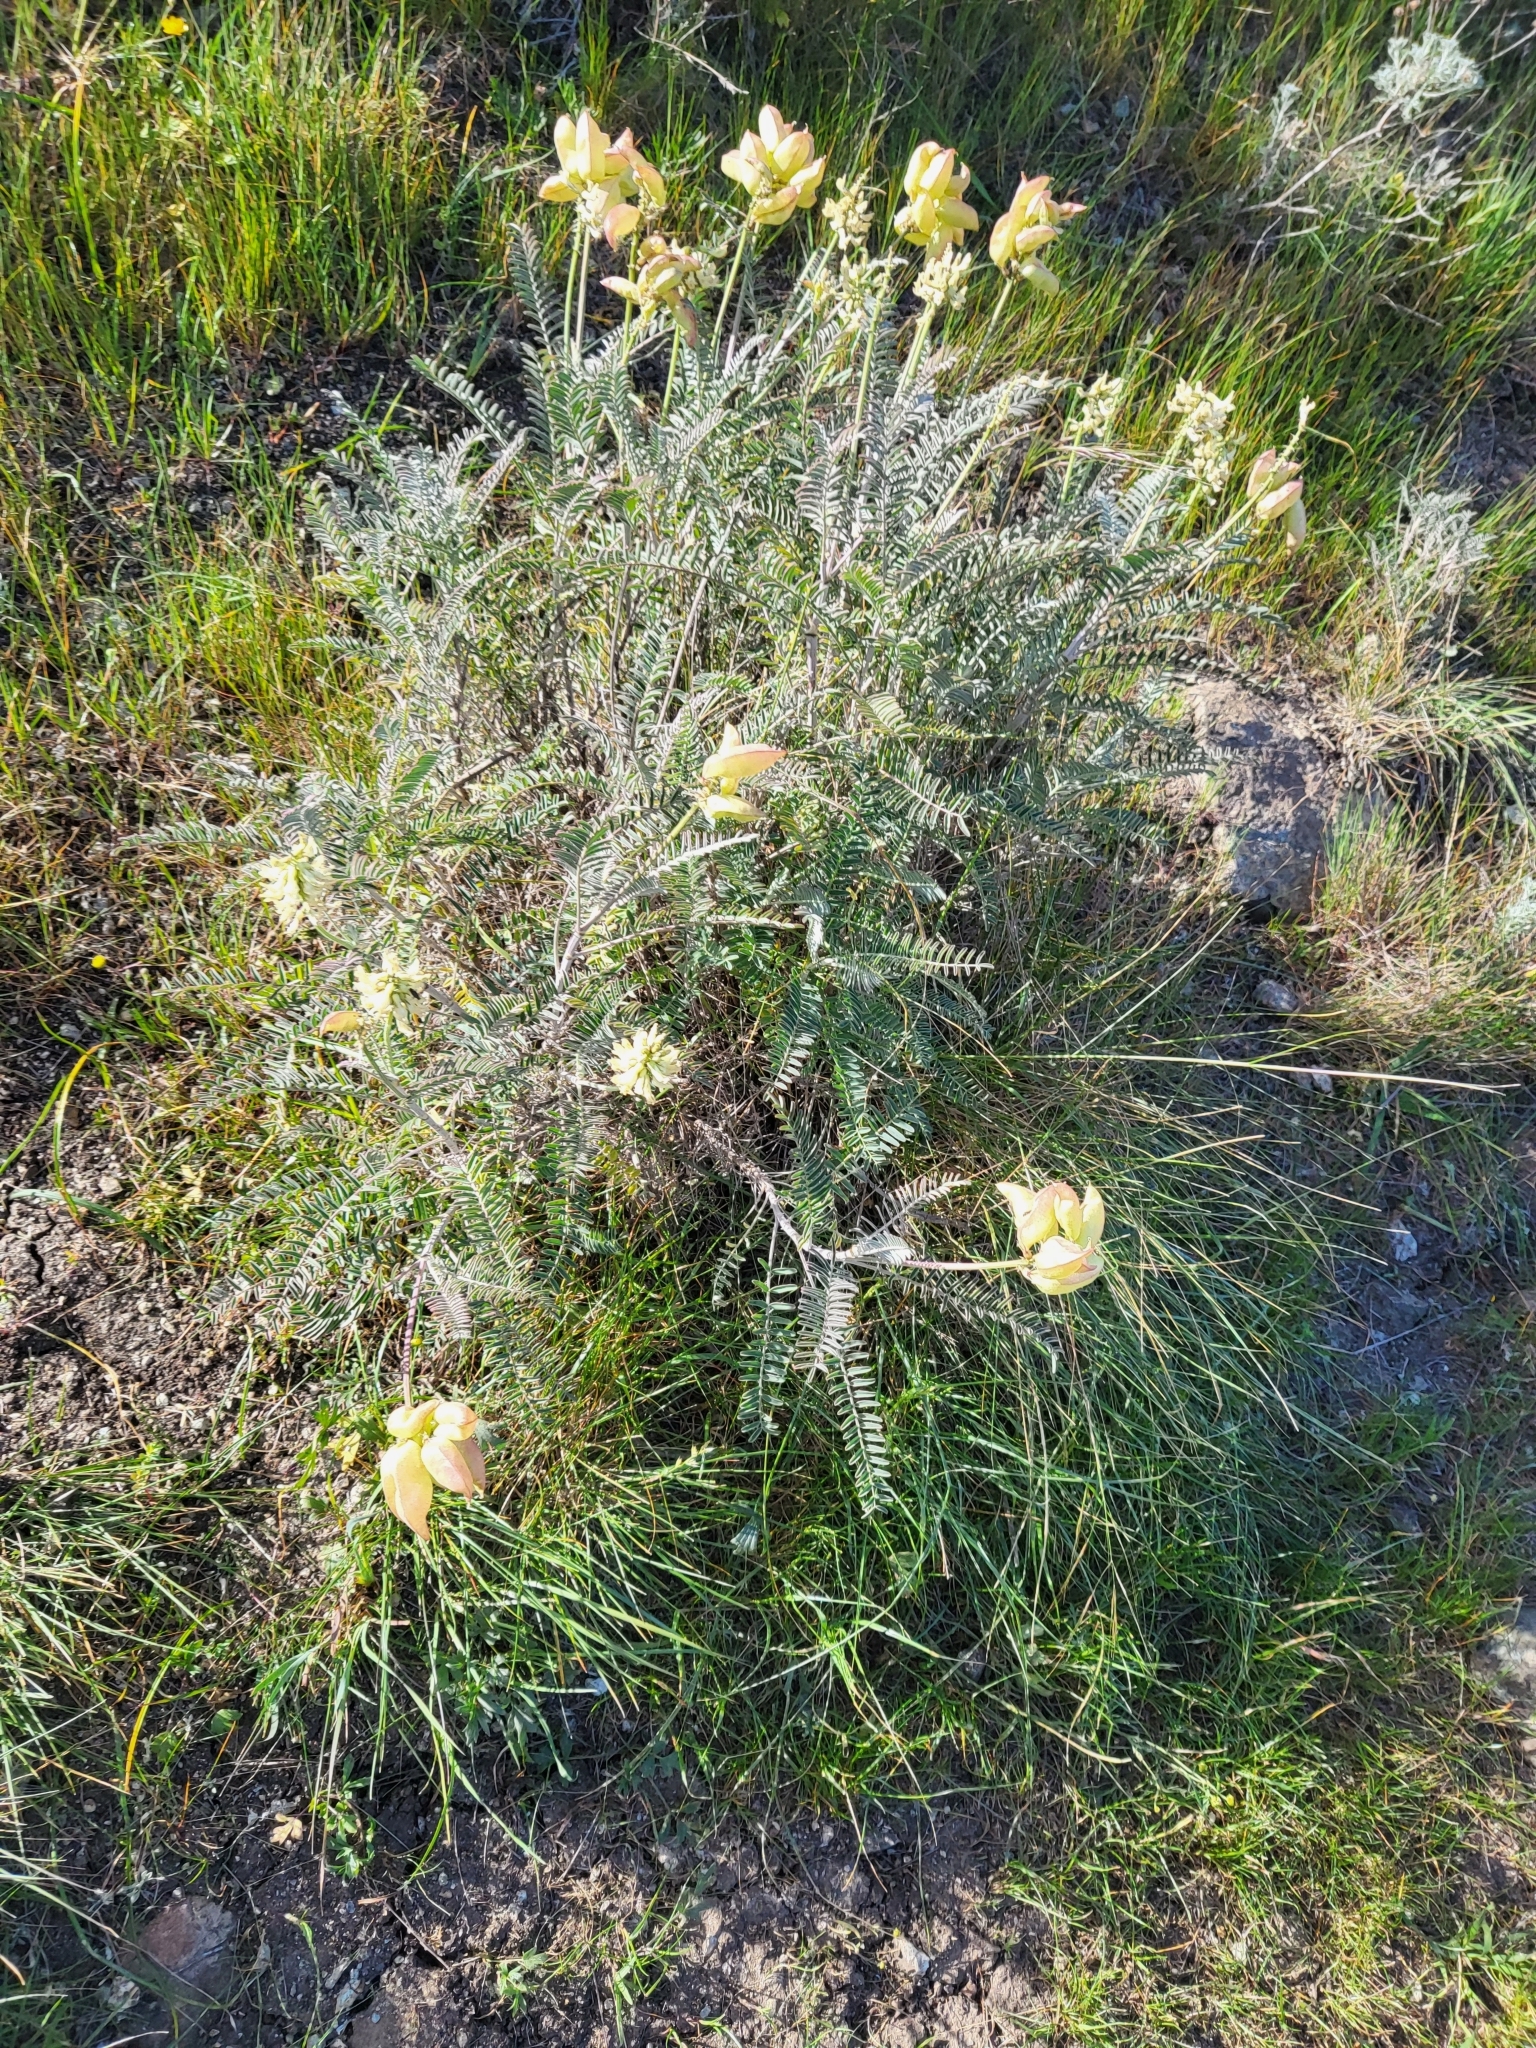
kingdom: Plantae
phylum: Tracheophyta
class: Magnoliopsida
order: Fabales
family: Fabaceae
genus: Astragalus
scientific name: Astragalus curtipes
